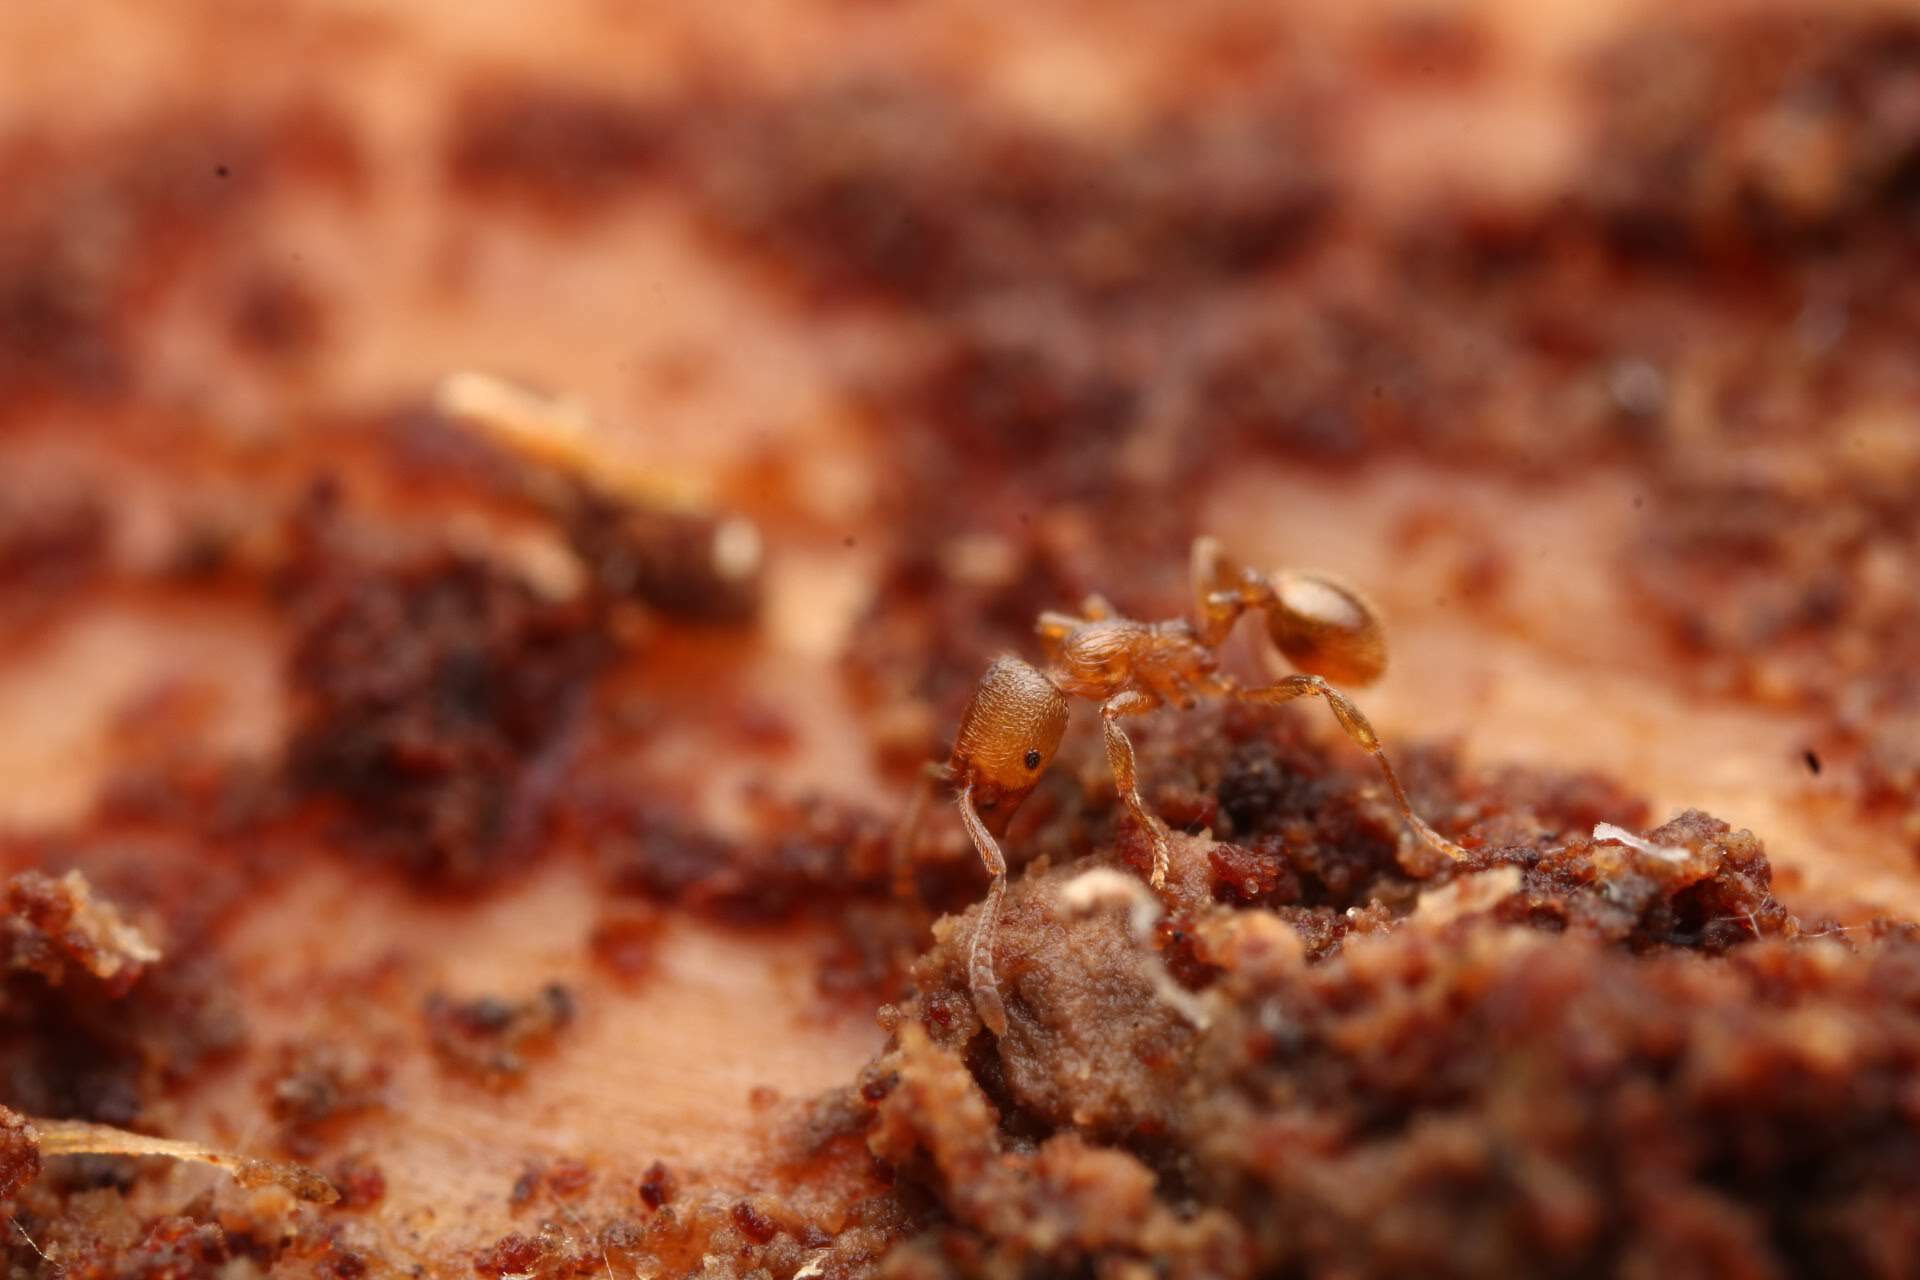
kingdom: Animalia
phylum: Arthropoda
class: Insecta
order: Hymenoptera
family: Formicidae
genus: Stenamma
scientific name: Stenamma schmitti
